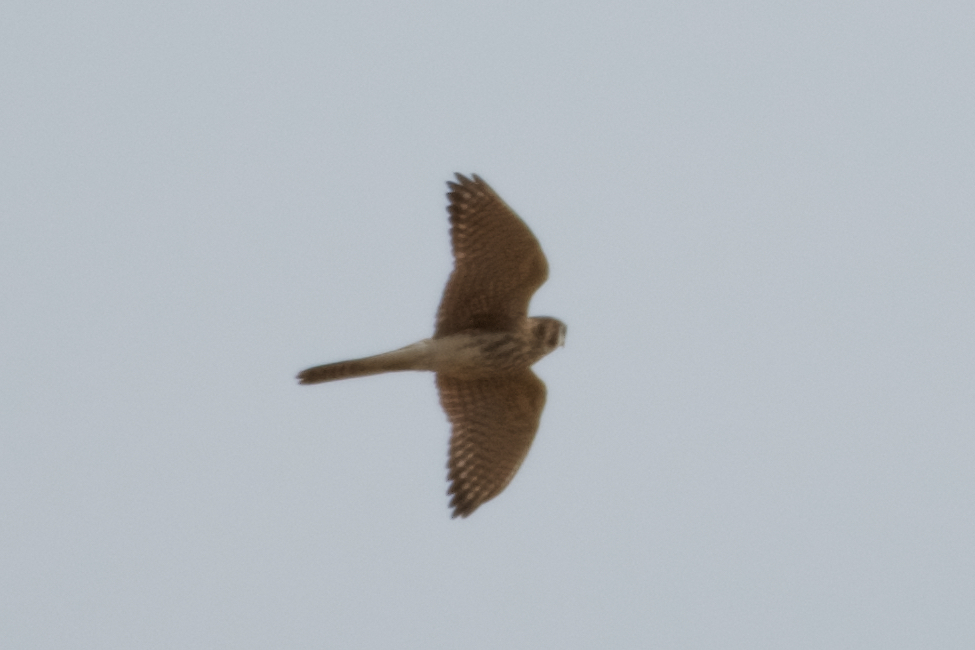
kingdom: Animalia
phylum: Chordata
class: Aves
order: Falconiformes
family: Falconidae
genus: Falco
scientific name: Falco sparverius
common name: American kestrel
